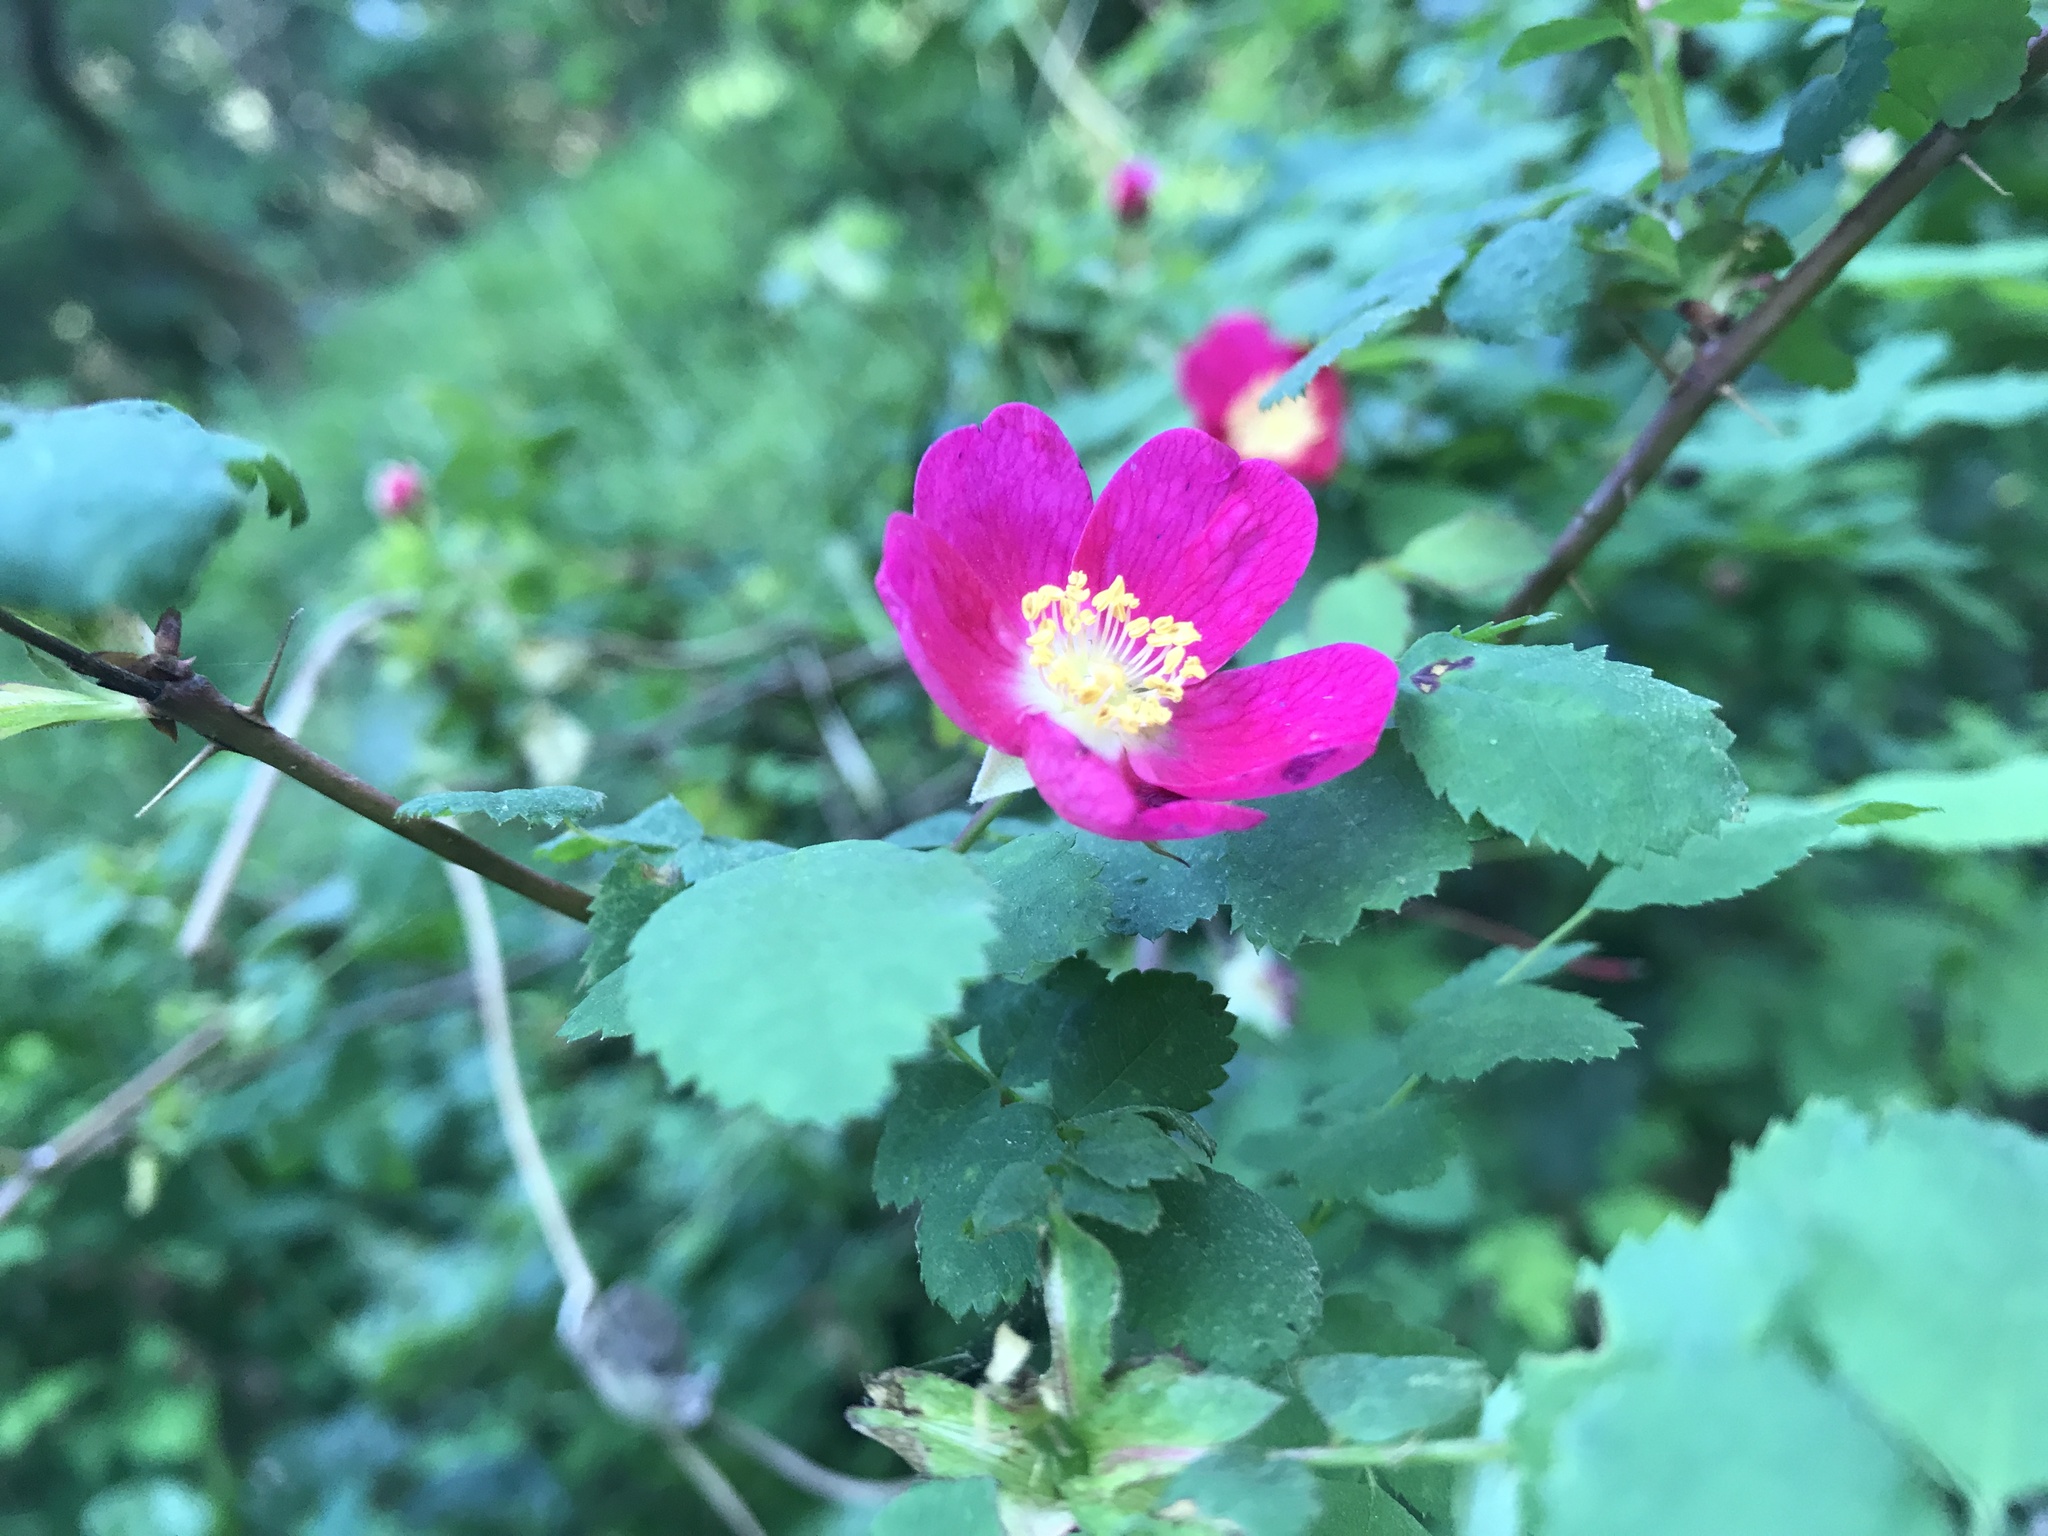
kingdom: Plantae
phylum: Tracheophyta
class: Magnoliopsida
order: Rosales
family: Rosaceae
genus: Rosa
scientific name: Rosa gymnocarpa
